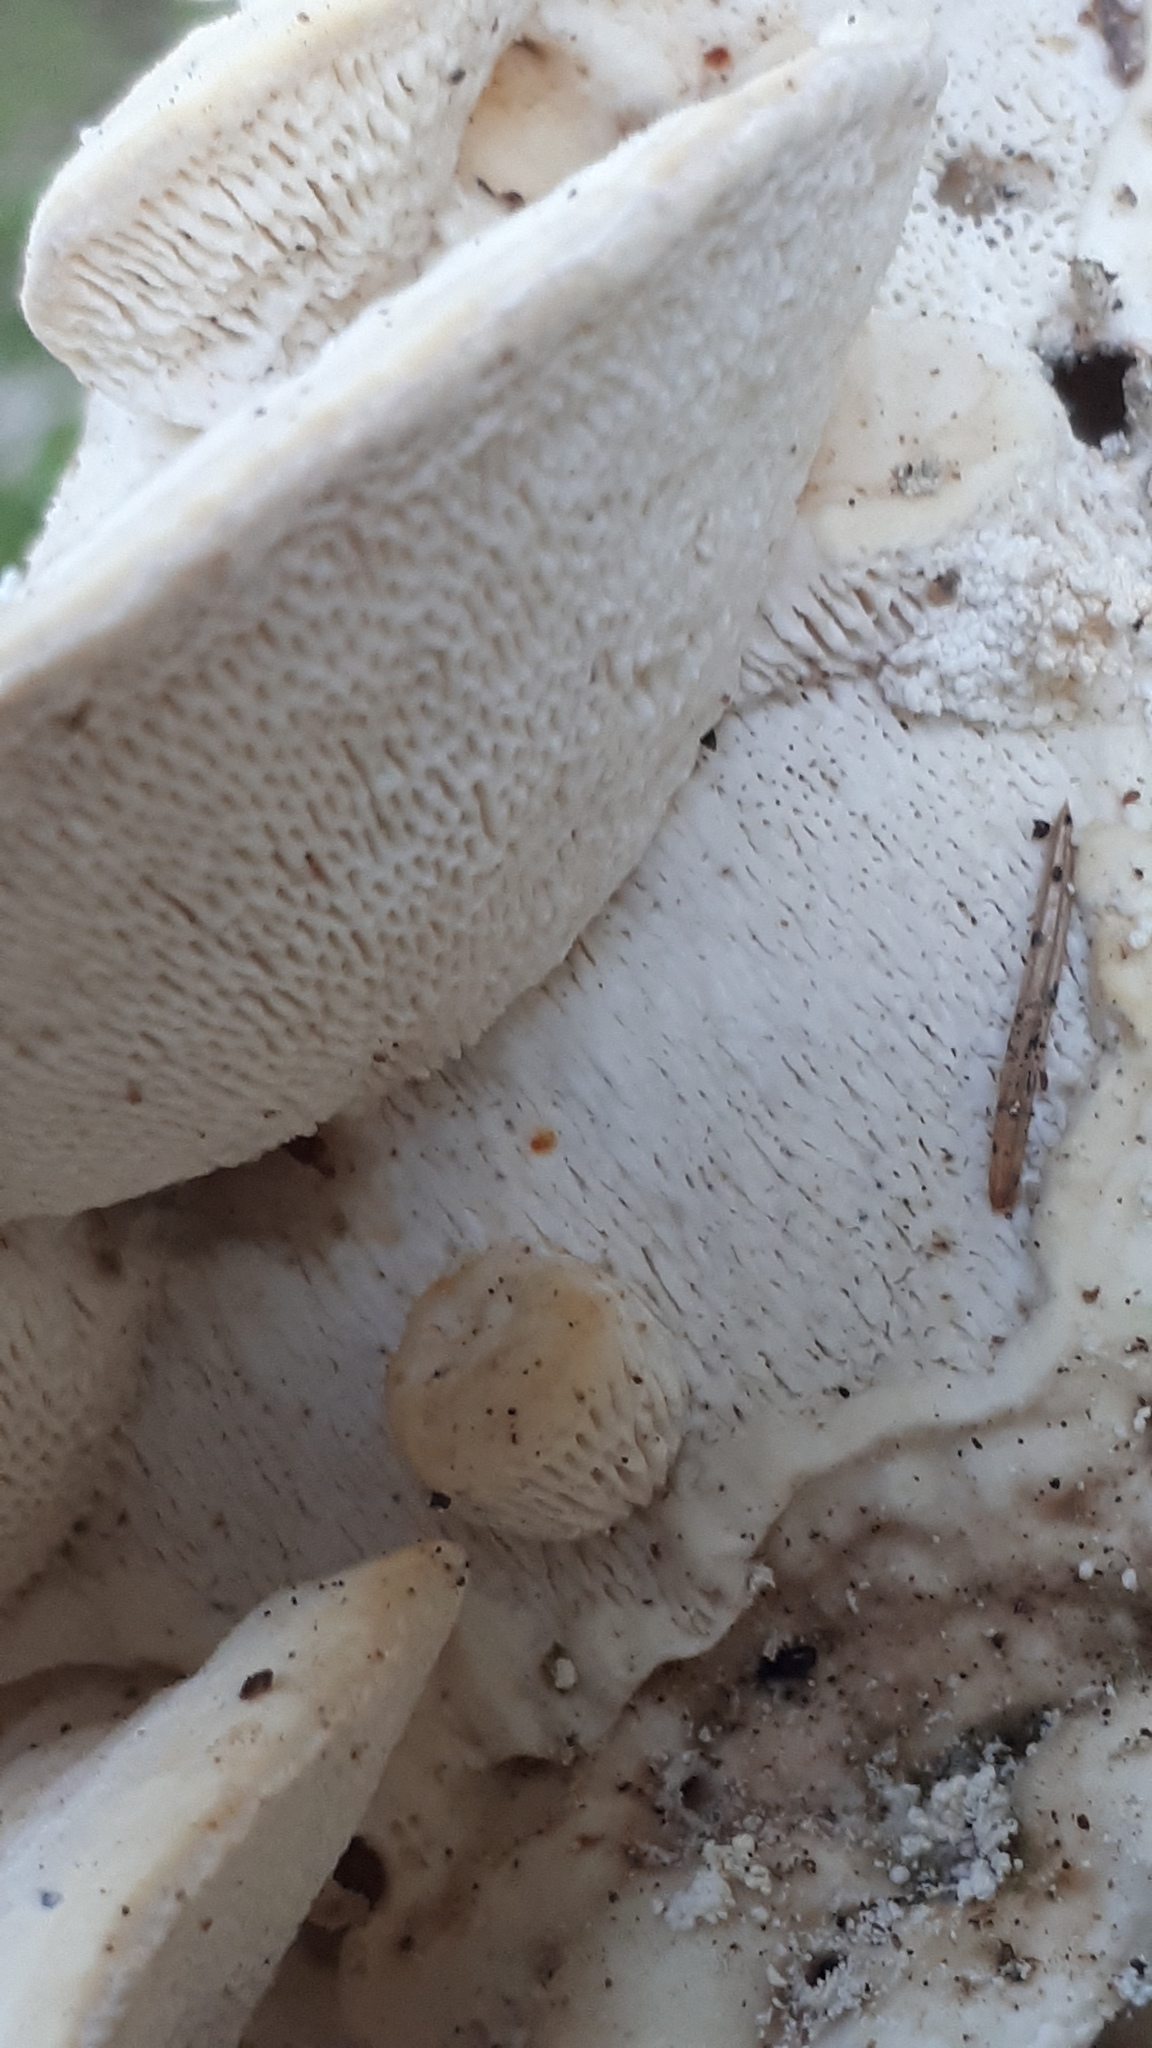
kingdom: Fungi
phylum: Basidiomycota
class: Agaricomycetes
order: Polyporales
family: Fomitopsidaceae
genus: Fomitopsis
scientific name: Fomitopsis
